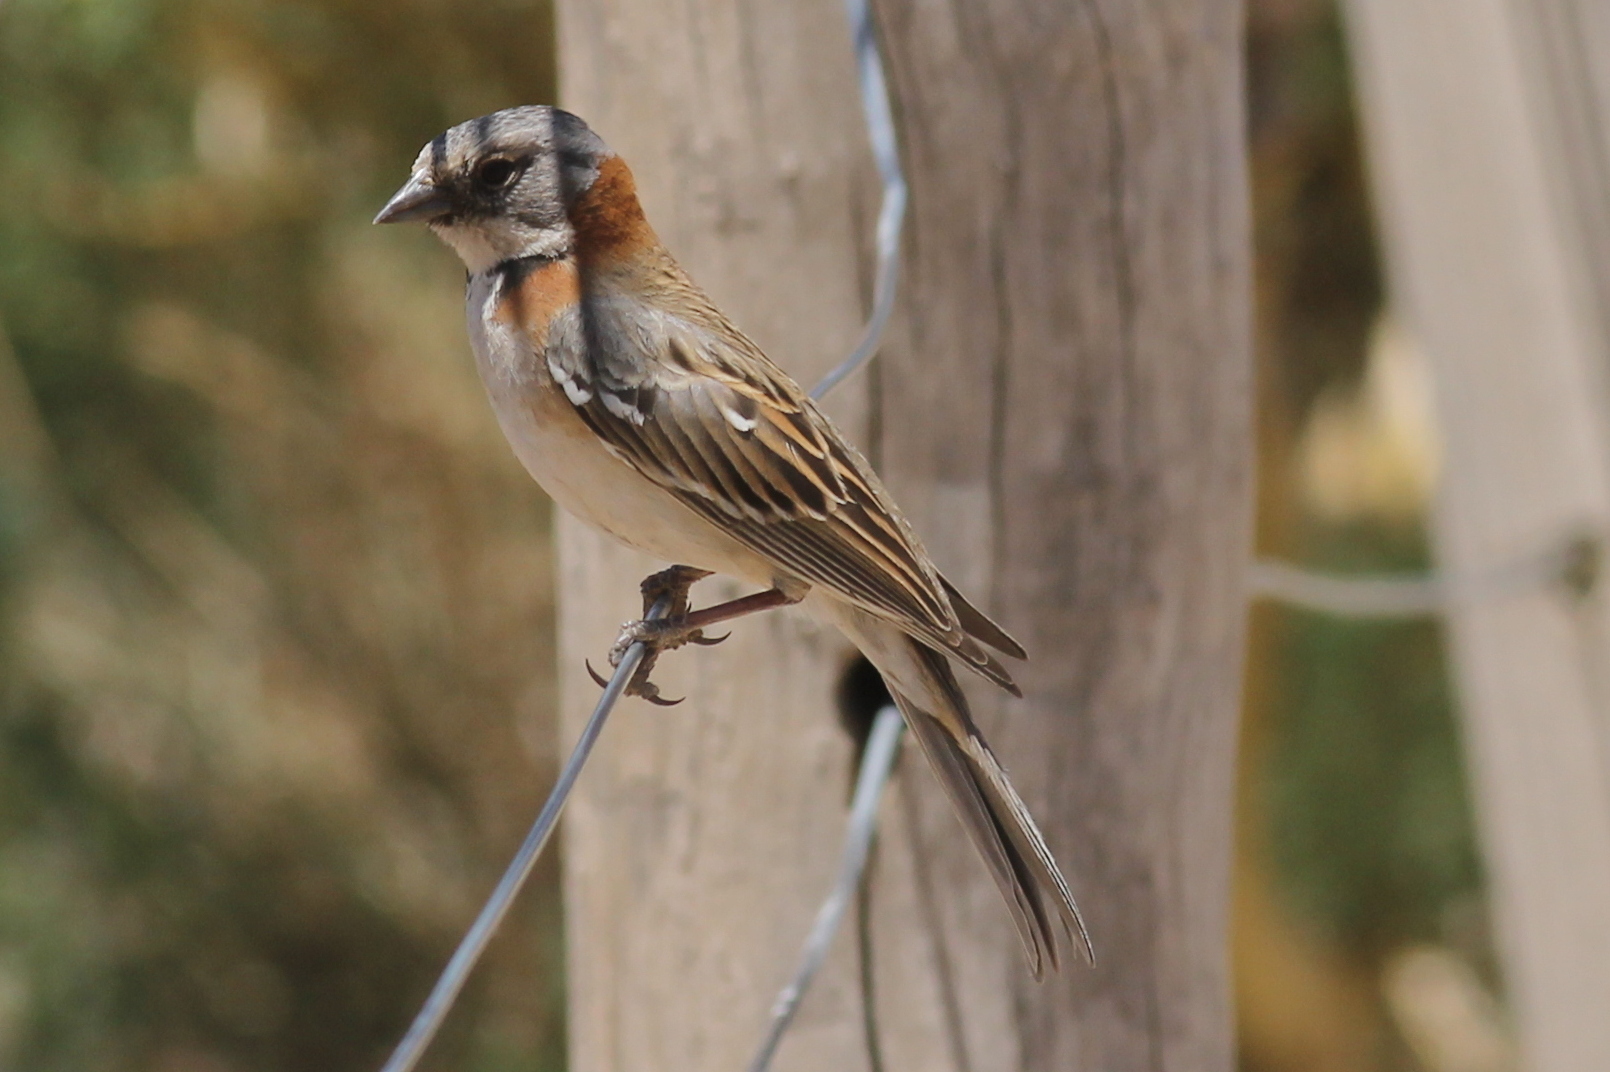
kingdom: Animalia
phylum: Chordata
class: Aves
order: Passeriformes
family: Passerellidae
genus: Zonotrichia
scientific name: Zonotrichia capensis
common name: Rufous-collared sparrow
